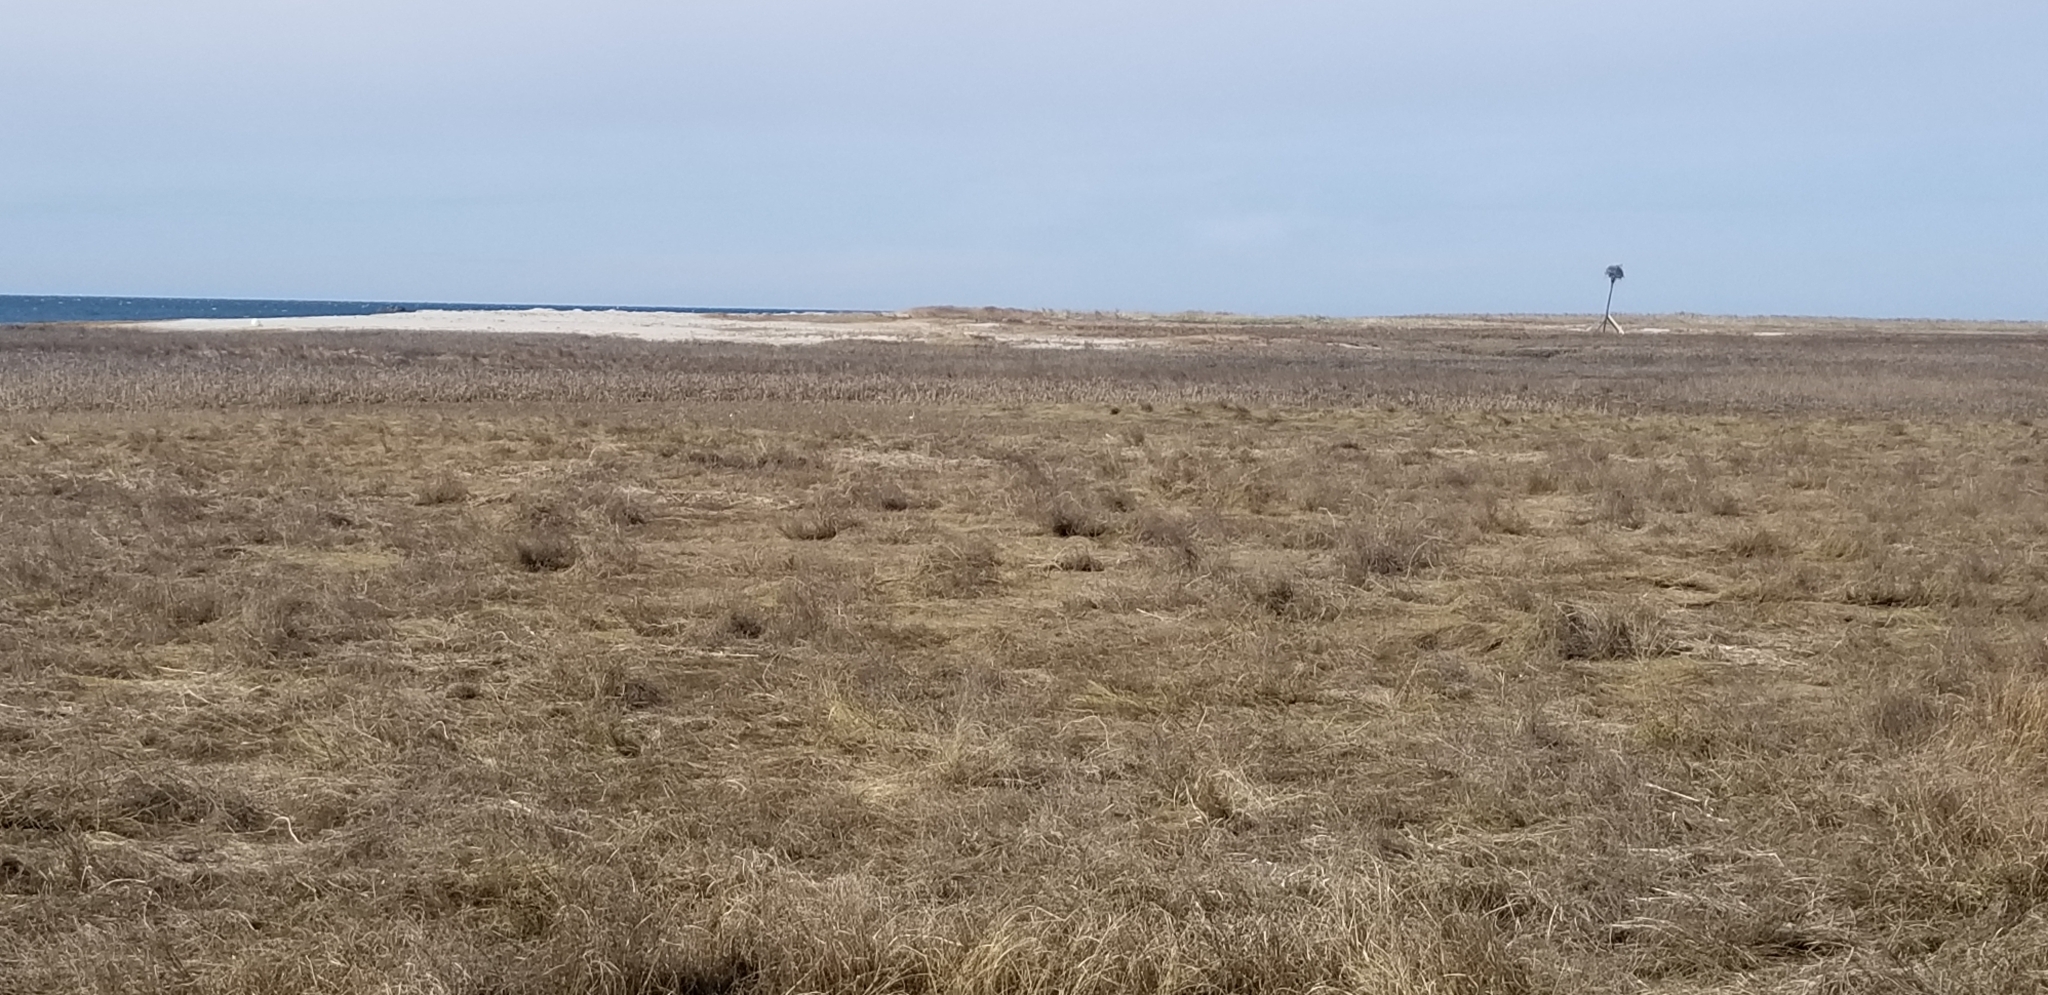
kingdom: Animalia
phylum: Chordata
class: Aves
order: Accipitriformes
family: Pandionidae
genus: Pandion
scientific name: Pandion haliaetus
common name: Osprey
